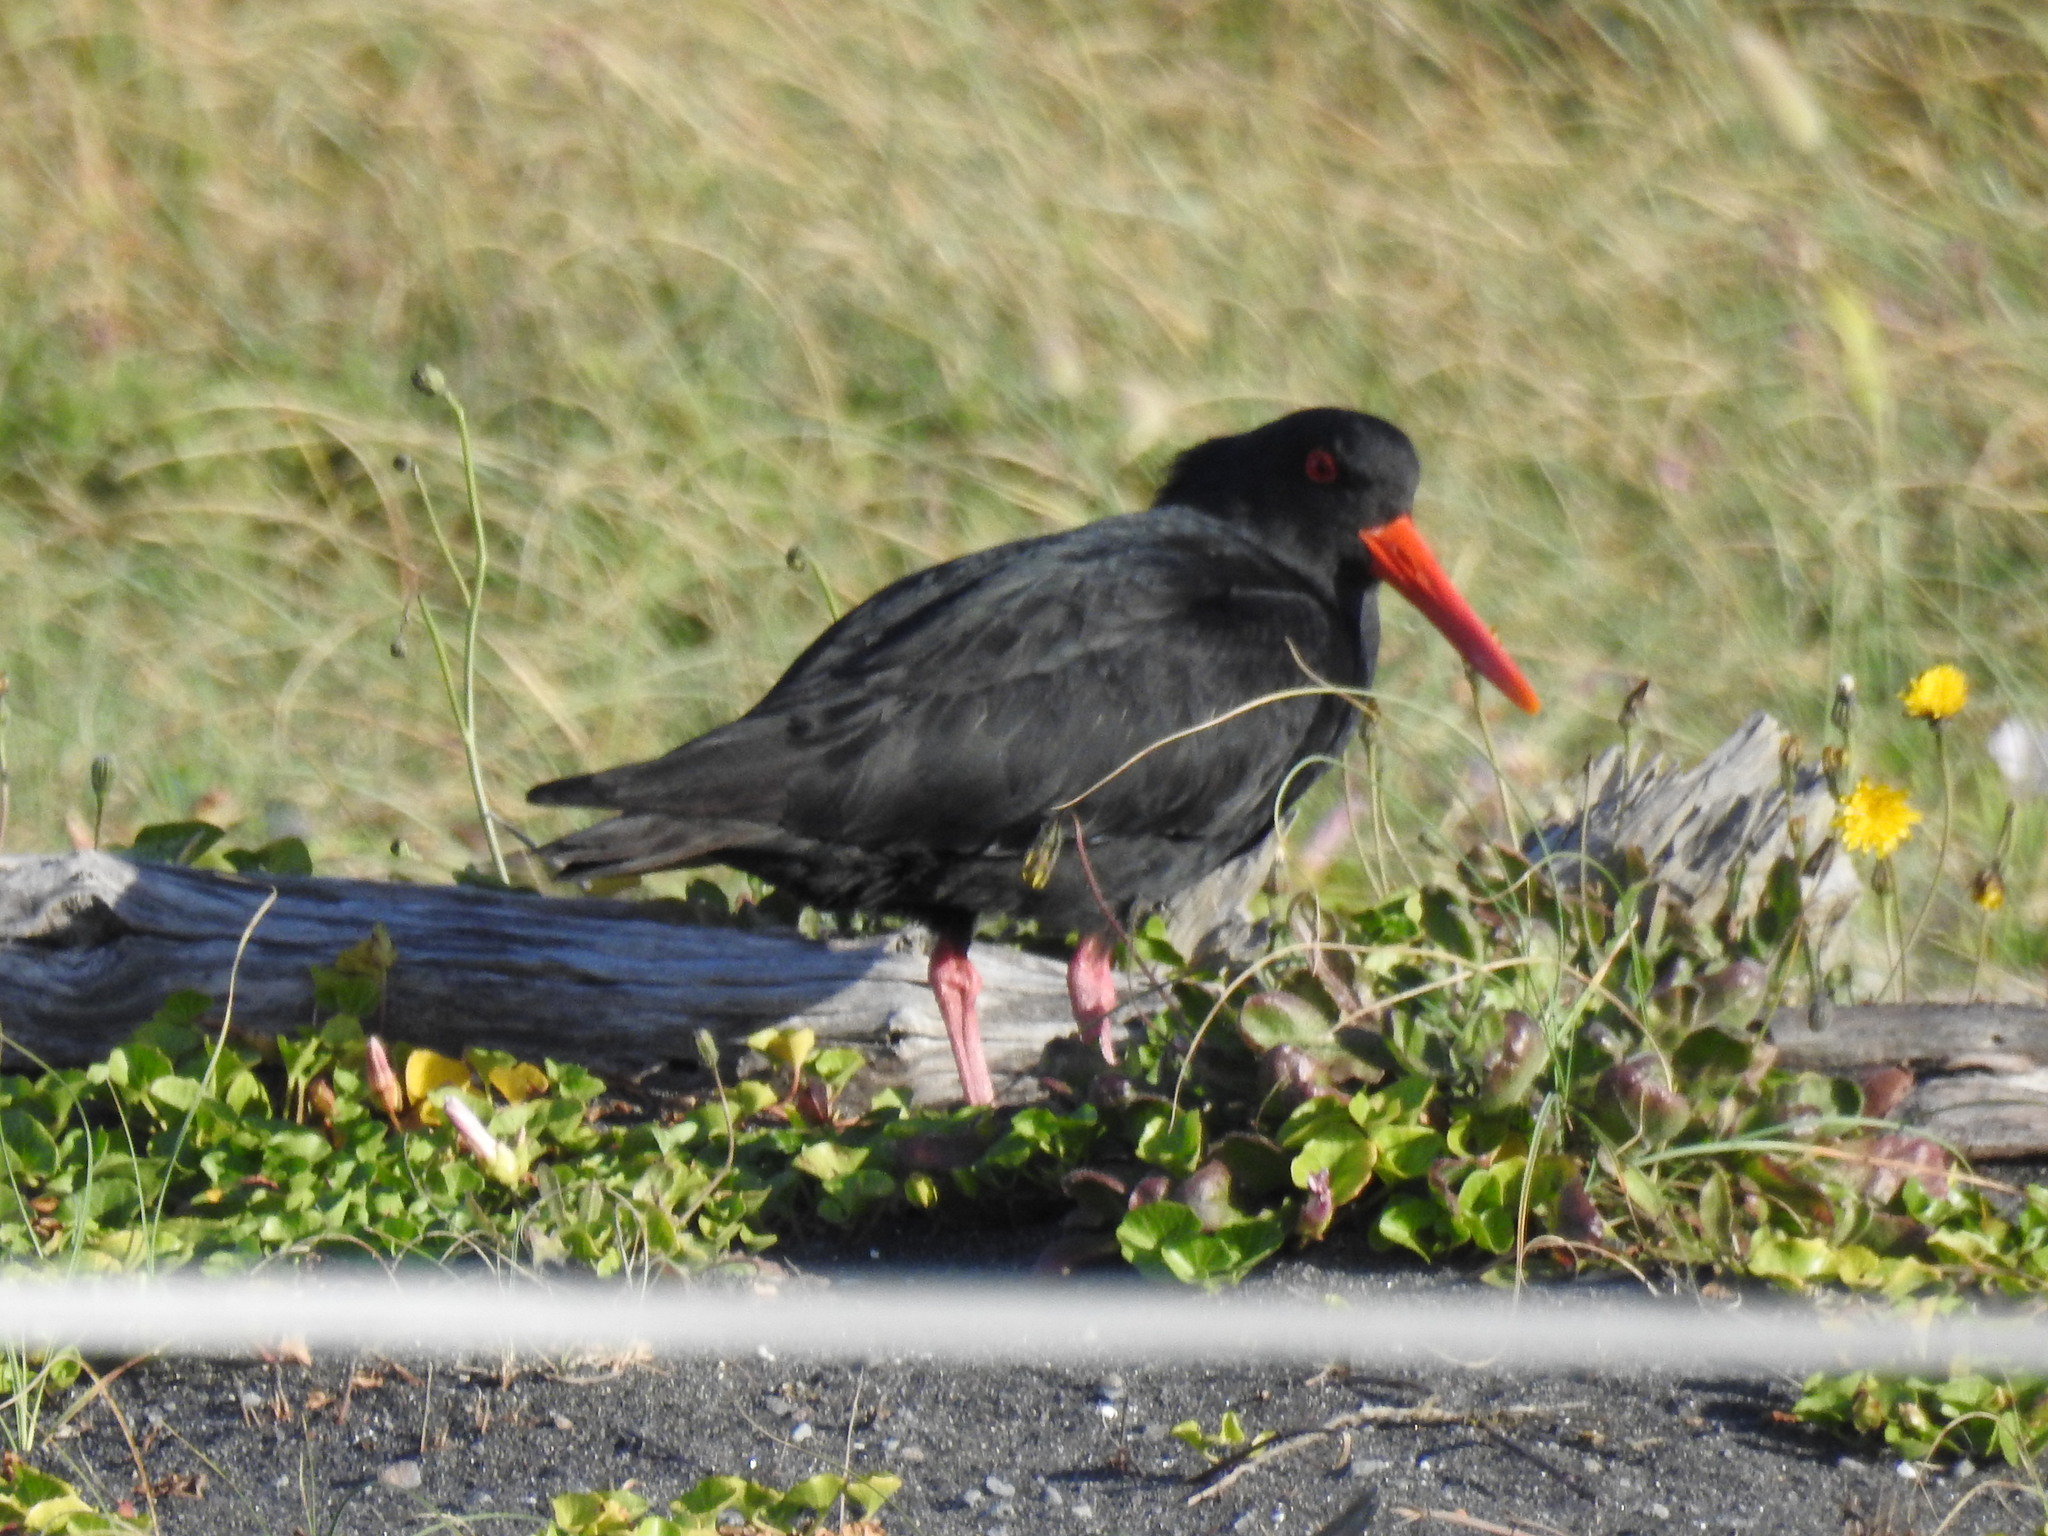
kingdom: Animalia
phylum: Chordata
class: Aves
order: Charadriiformes
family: Haematopodidae
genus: Haematopus
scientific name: Haematopus unicolor
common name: Variable oystercatcher
